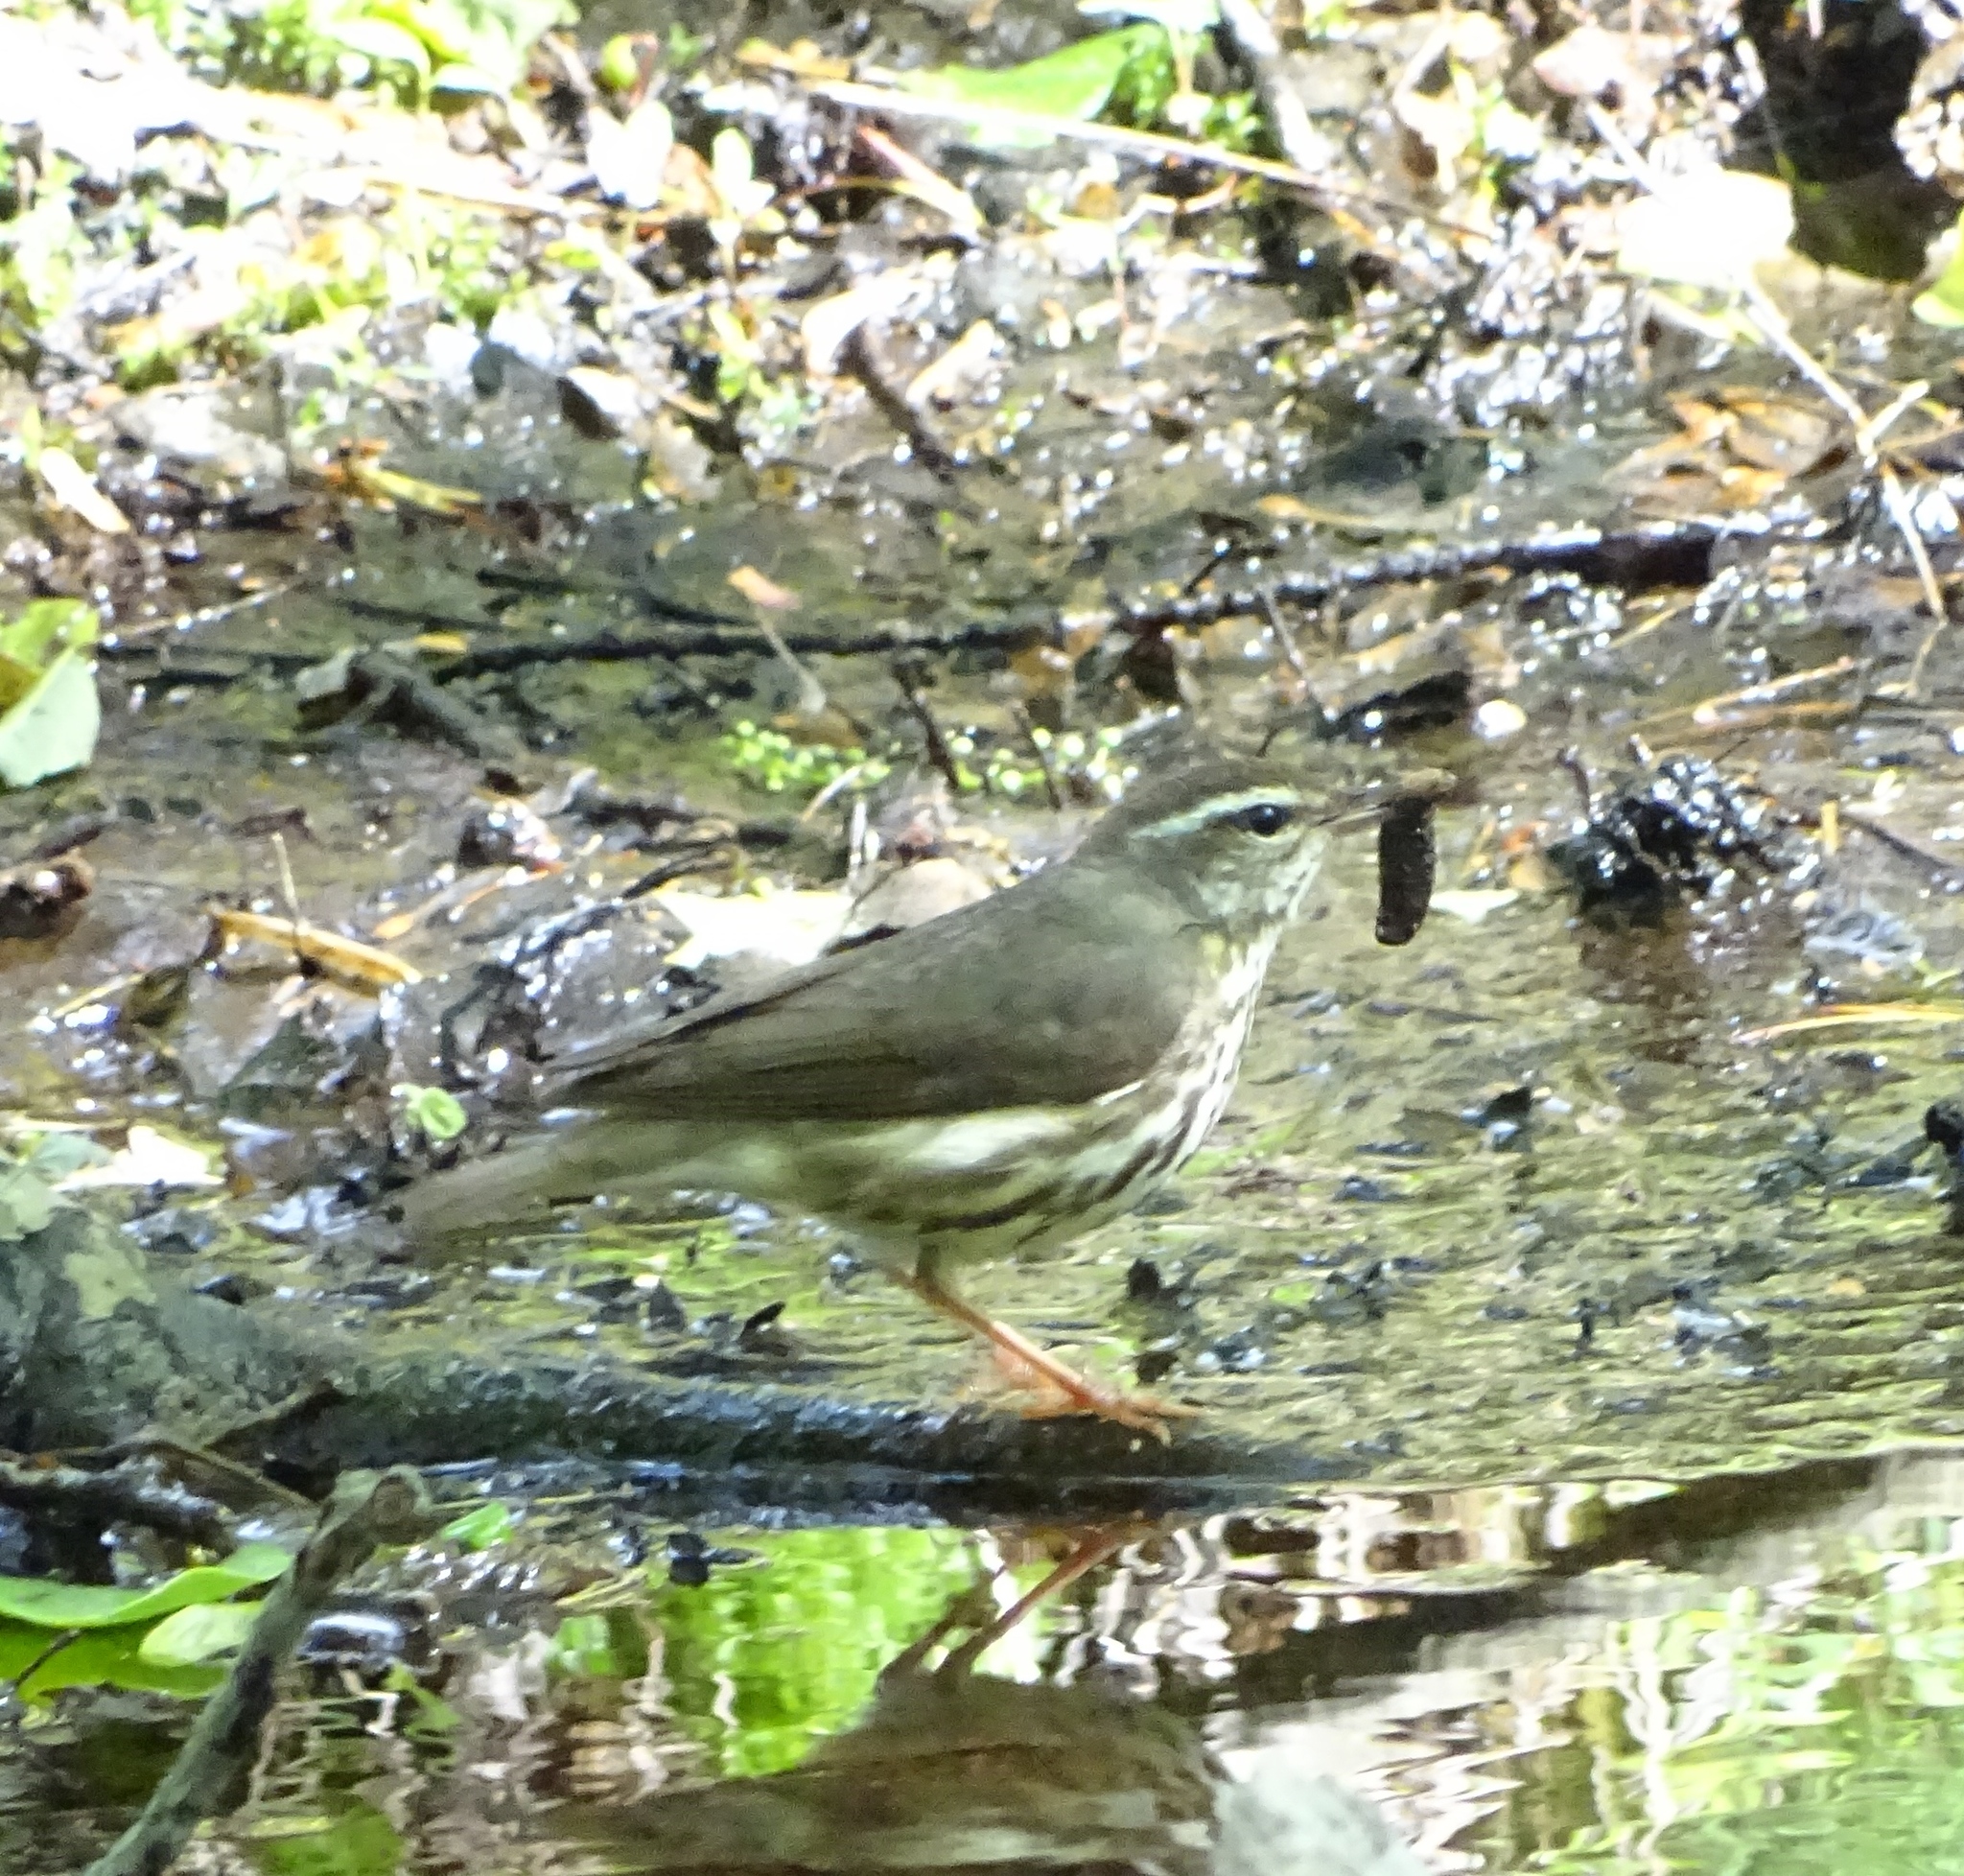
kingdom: Animalia
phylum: Chordata
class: Aves
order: Passeriformes
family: Parulidae
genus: Parkesia
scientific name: Parkesia motacilla
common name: Louisiana waterthrush
